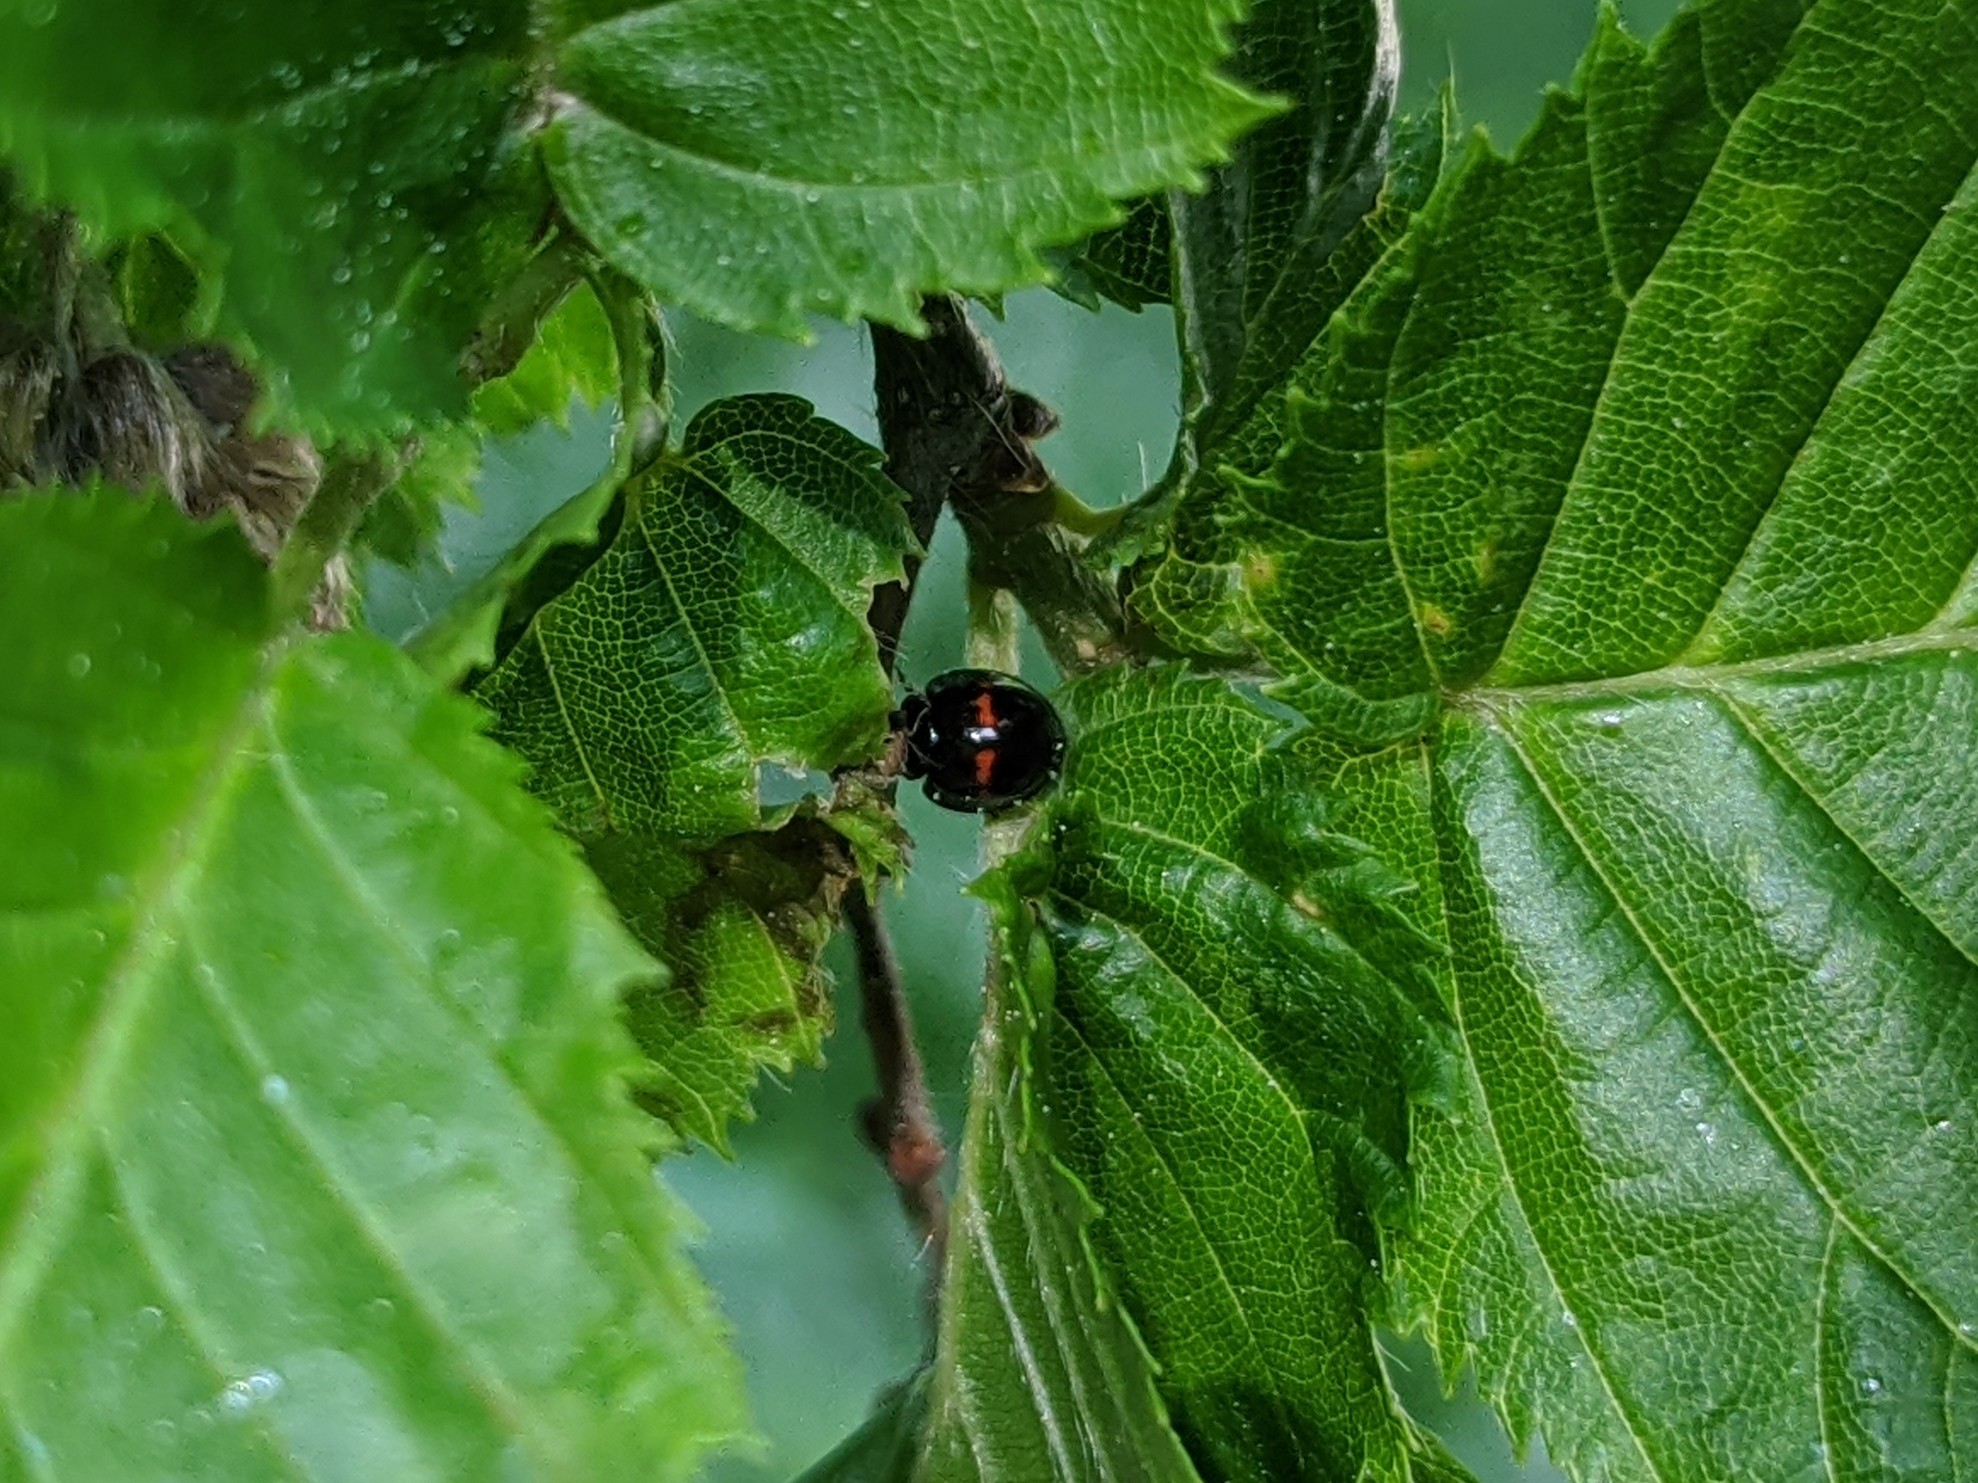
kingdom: Animalia
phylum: Arthropoda
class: Insecta
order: Coleoptera
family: Coccinellidae
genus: Chilocorus
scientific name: Chilocorus bipustulatus
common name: Heather ladybird
